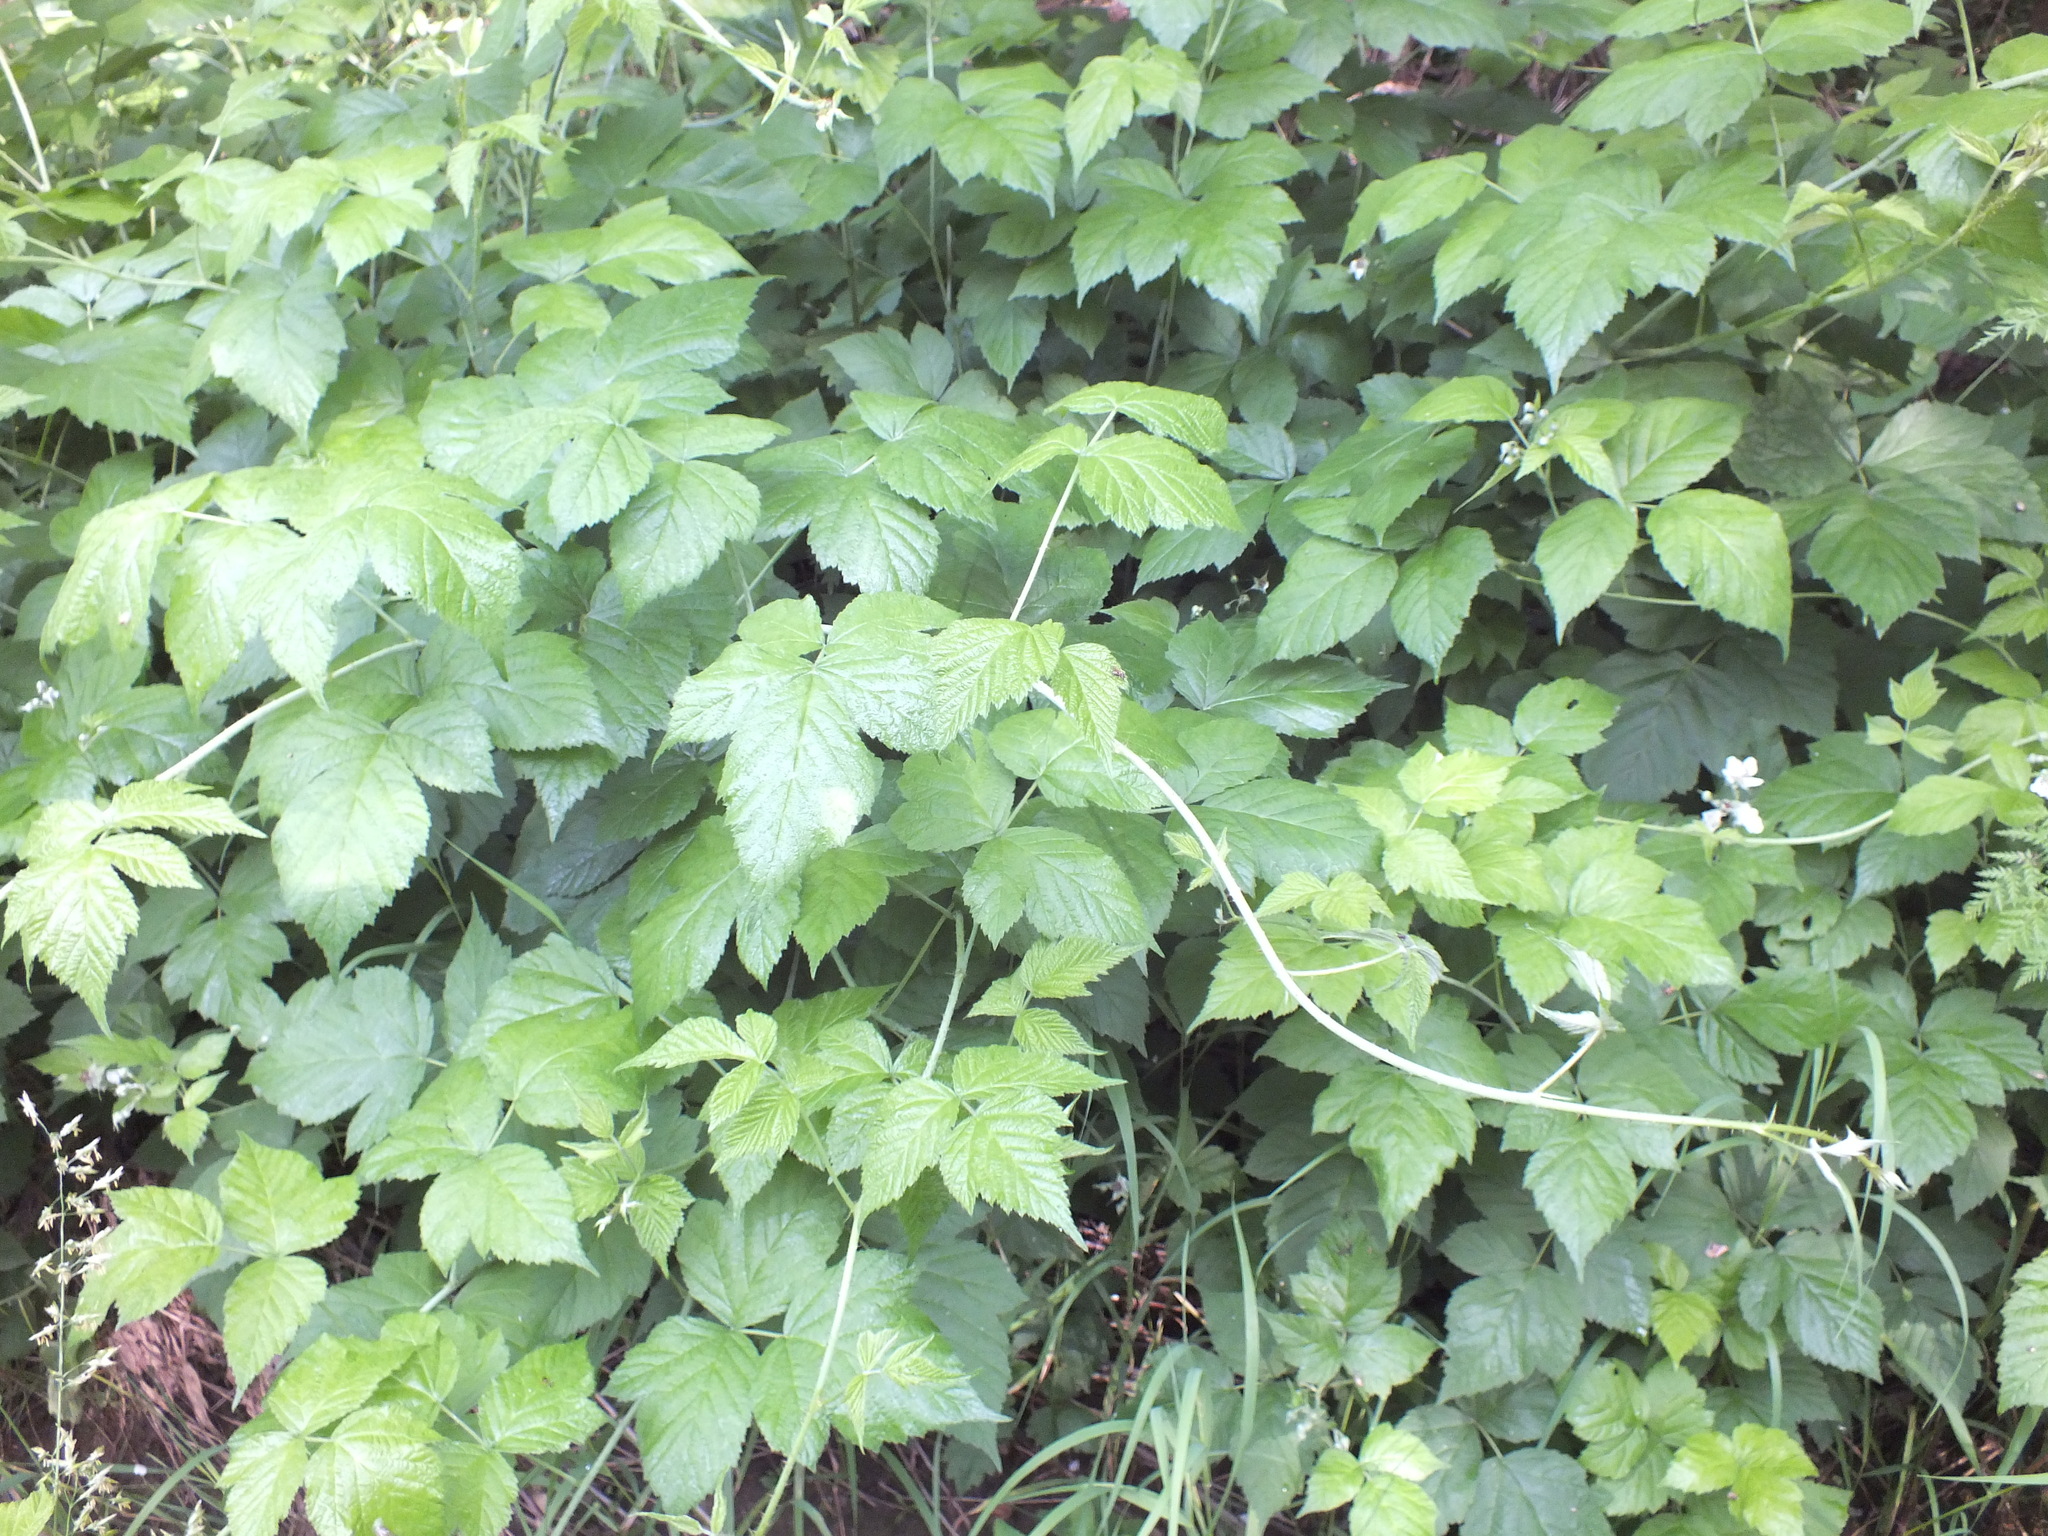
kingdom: Plantae
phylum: Tracheophyta
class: Magnoliopsida
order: Rosales
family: Rosaceae
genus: Rubus
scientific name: Rubus caesius
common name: Dewberry
